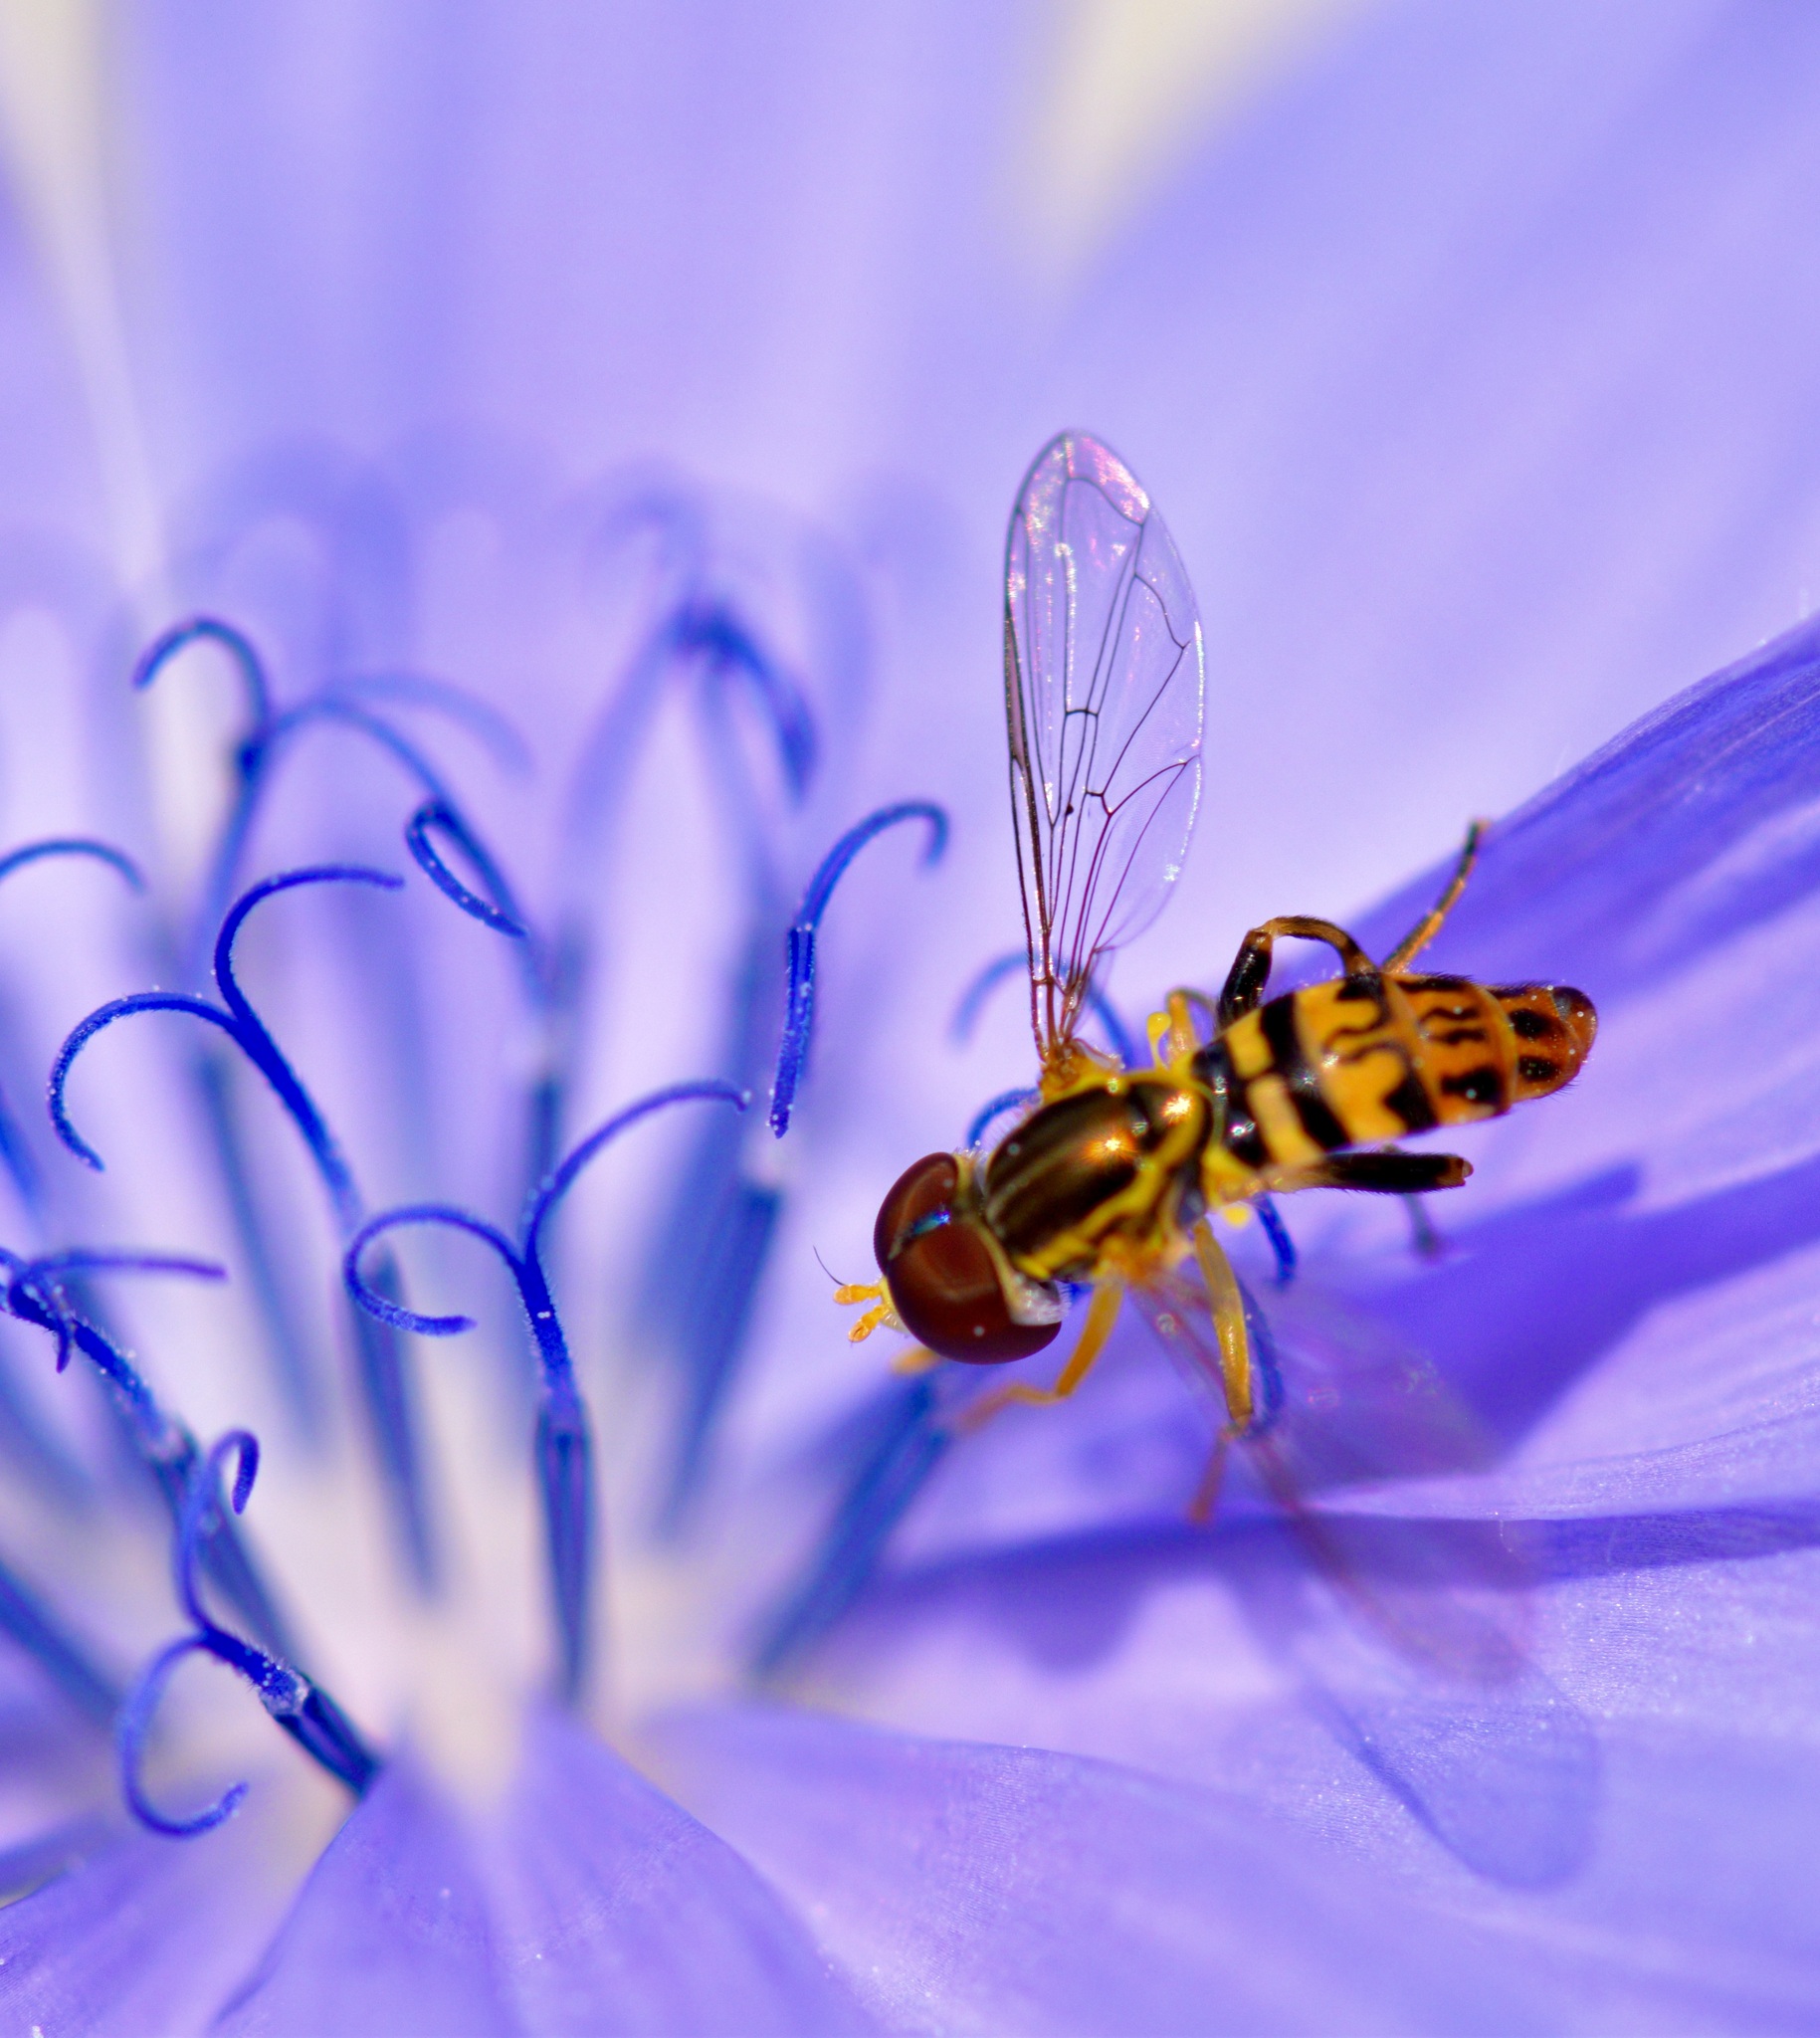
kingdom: Animalia
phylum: Arthropoda
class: Insecta
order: Diptera
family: Syrphidae
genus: Toxomerus
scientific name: Toxomerus geminatus
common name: Eastern calligrapher
